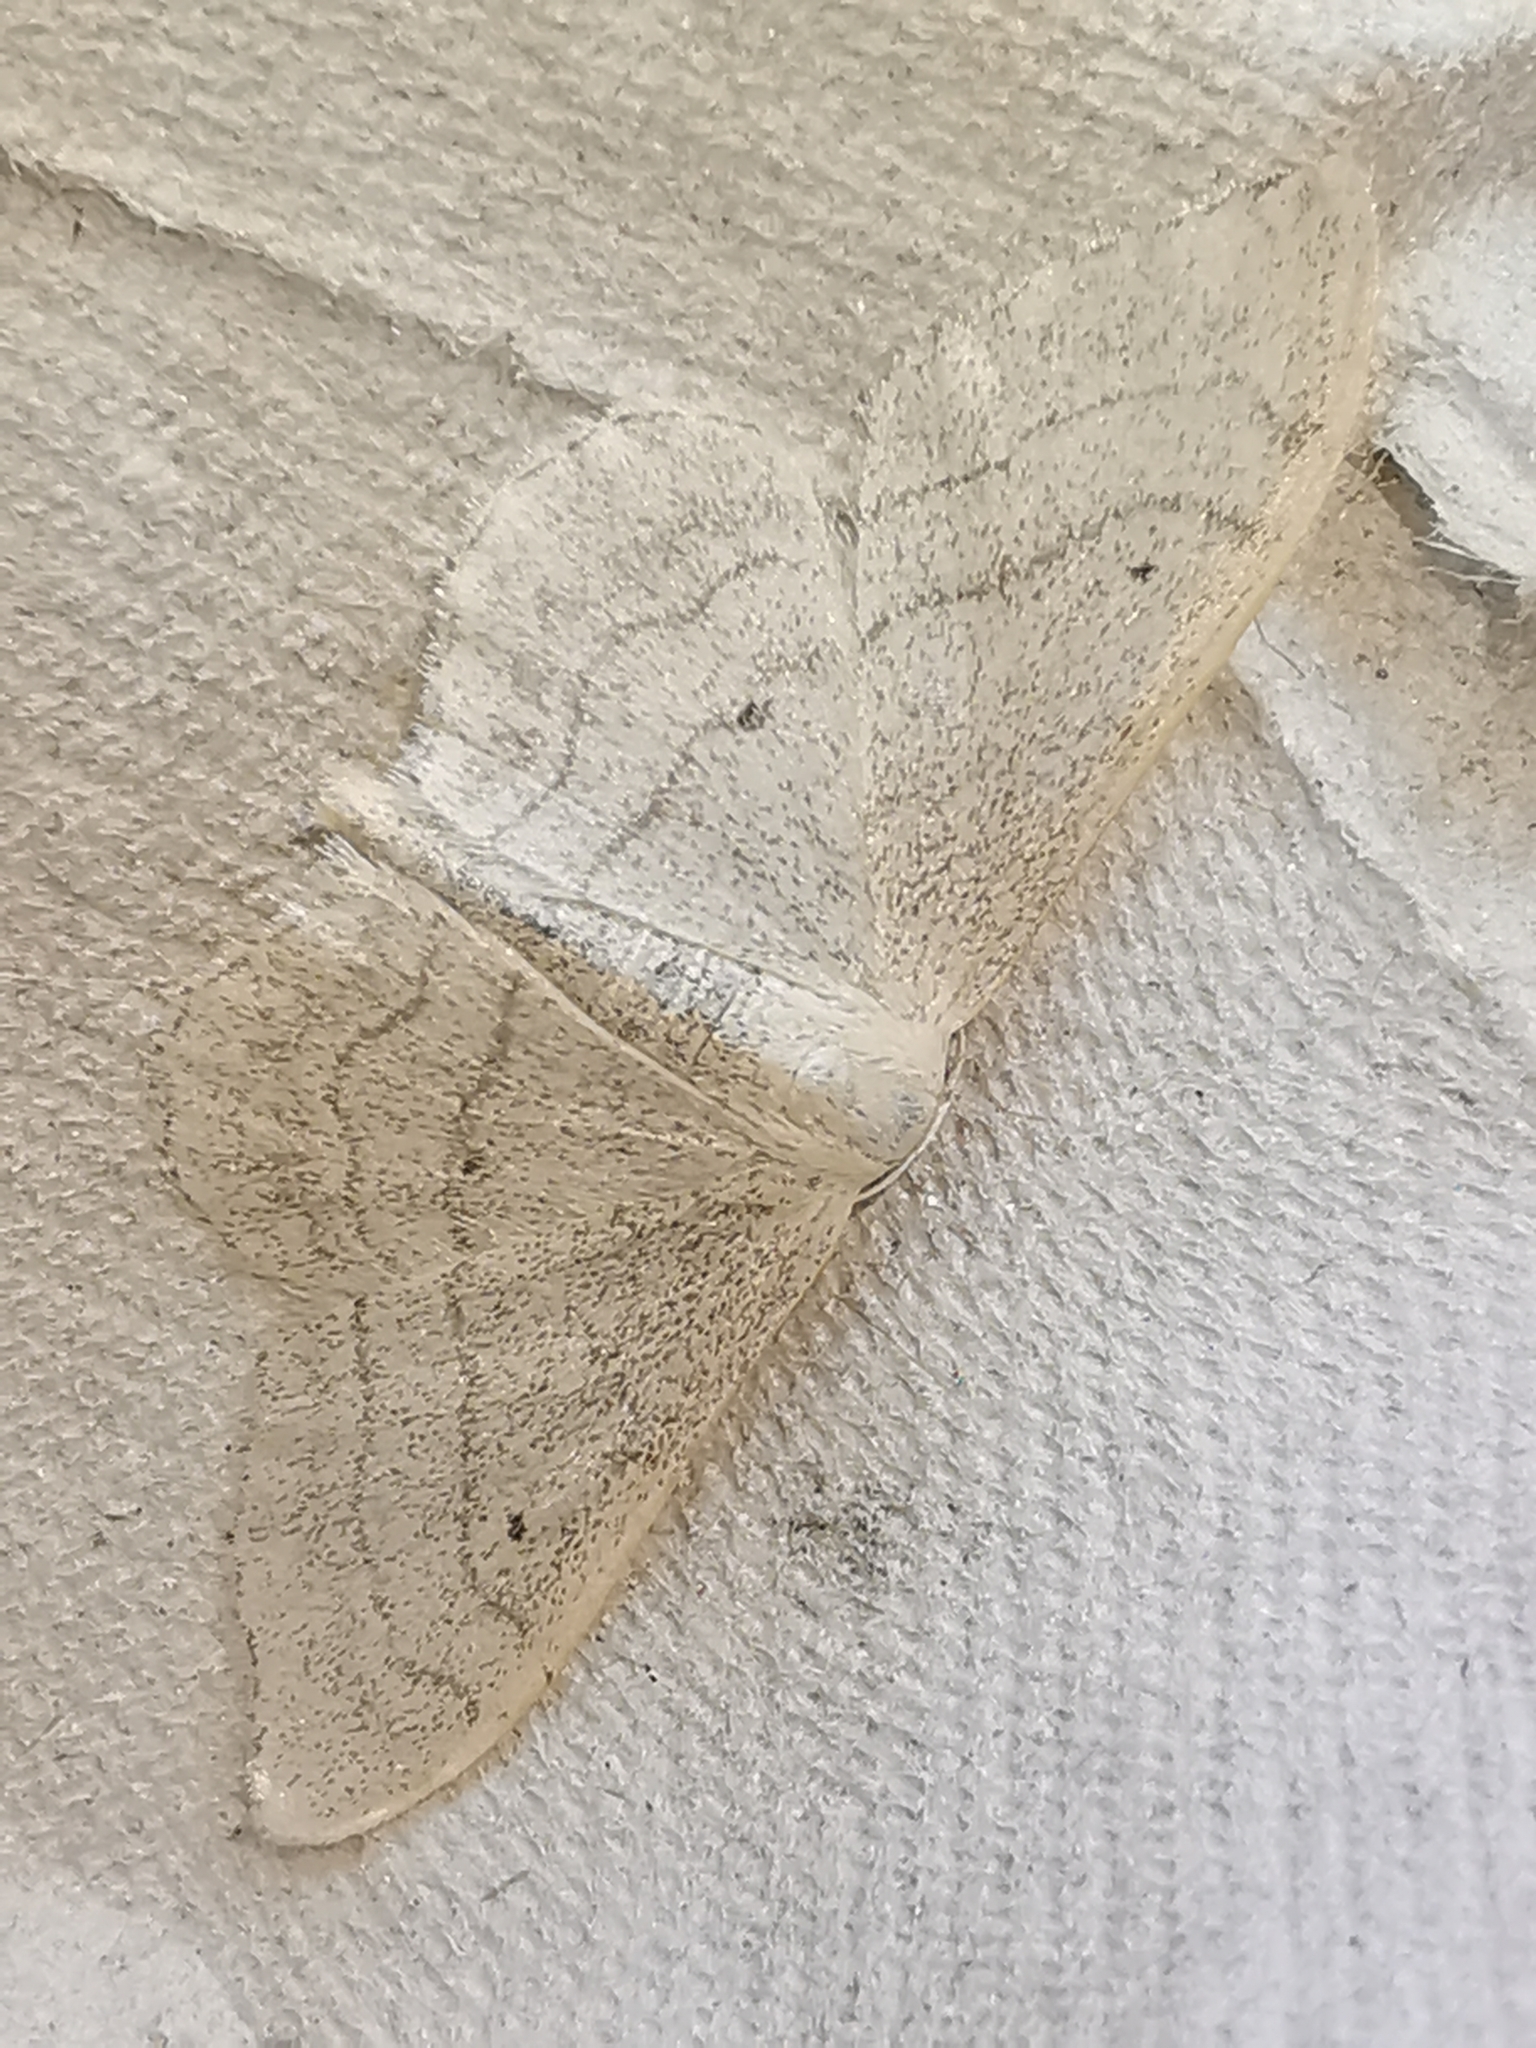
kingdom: Animalia
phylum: Arthropoda
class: Insecta
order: Lepidoptera
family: Geometridae
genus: Idaea
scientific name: Idaea aversata
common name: Riband wave
